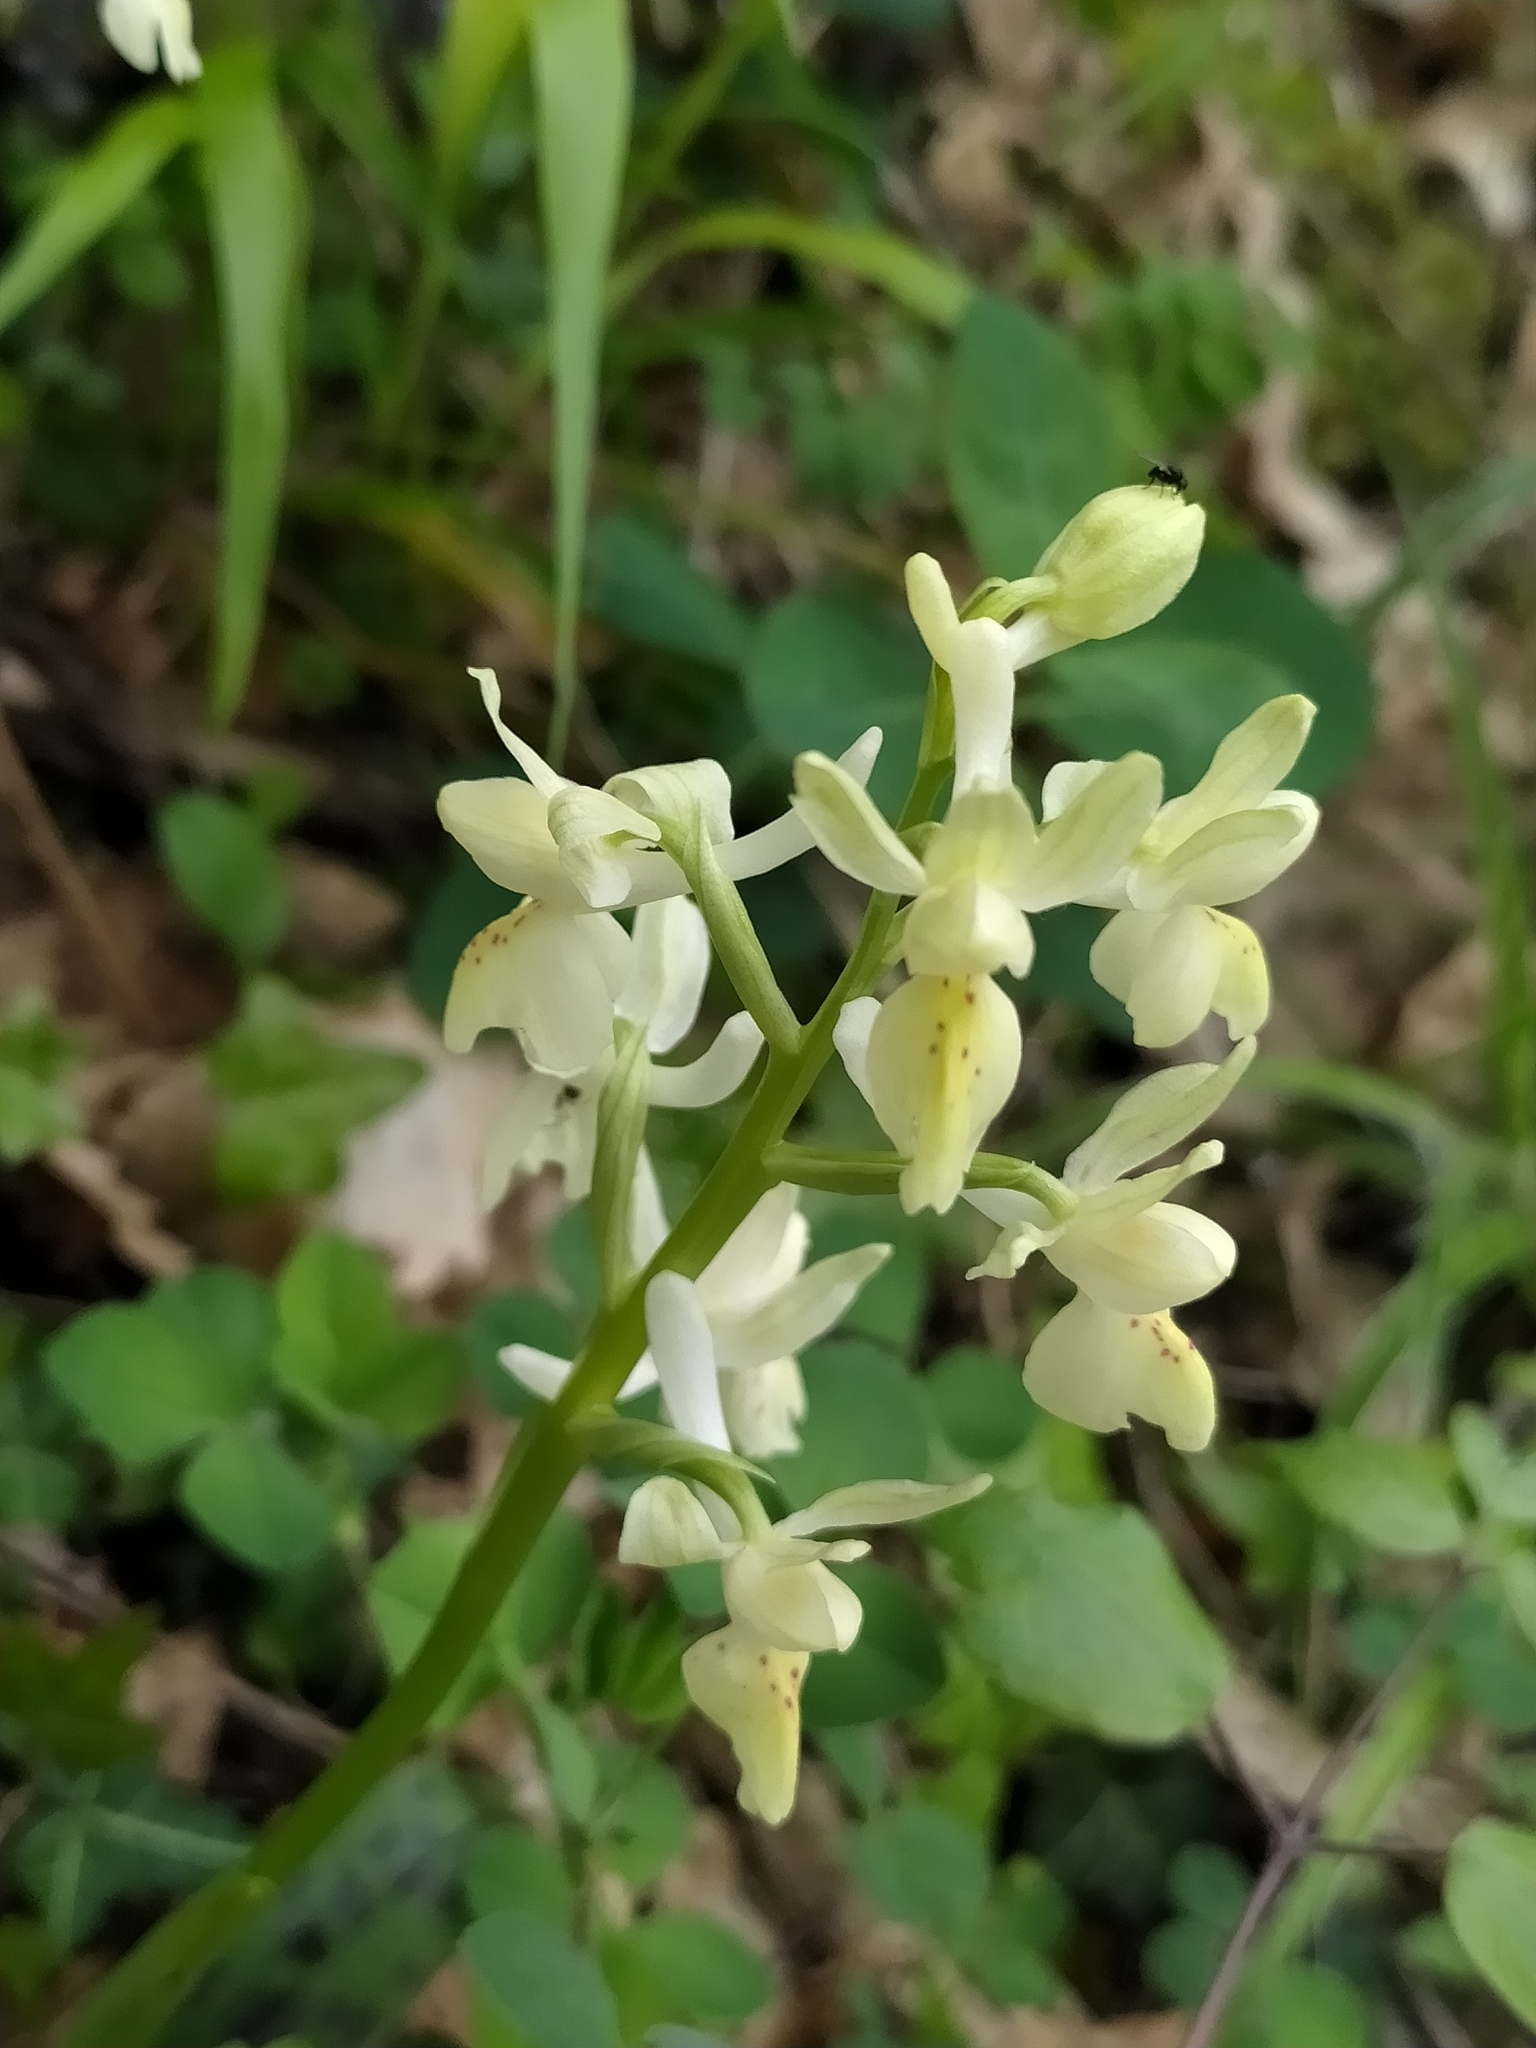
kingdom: Plantae
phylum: Tracheophyta
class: Liliopsida
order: Asparagales
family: Orchidaceae
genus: Orchis
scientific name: Orchis provincialis
